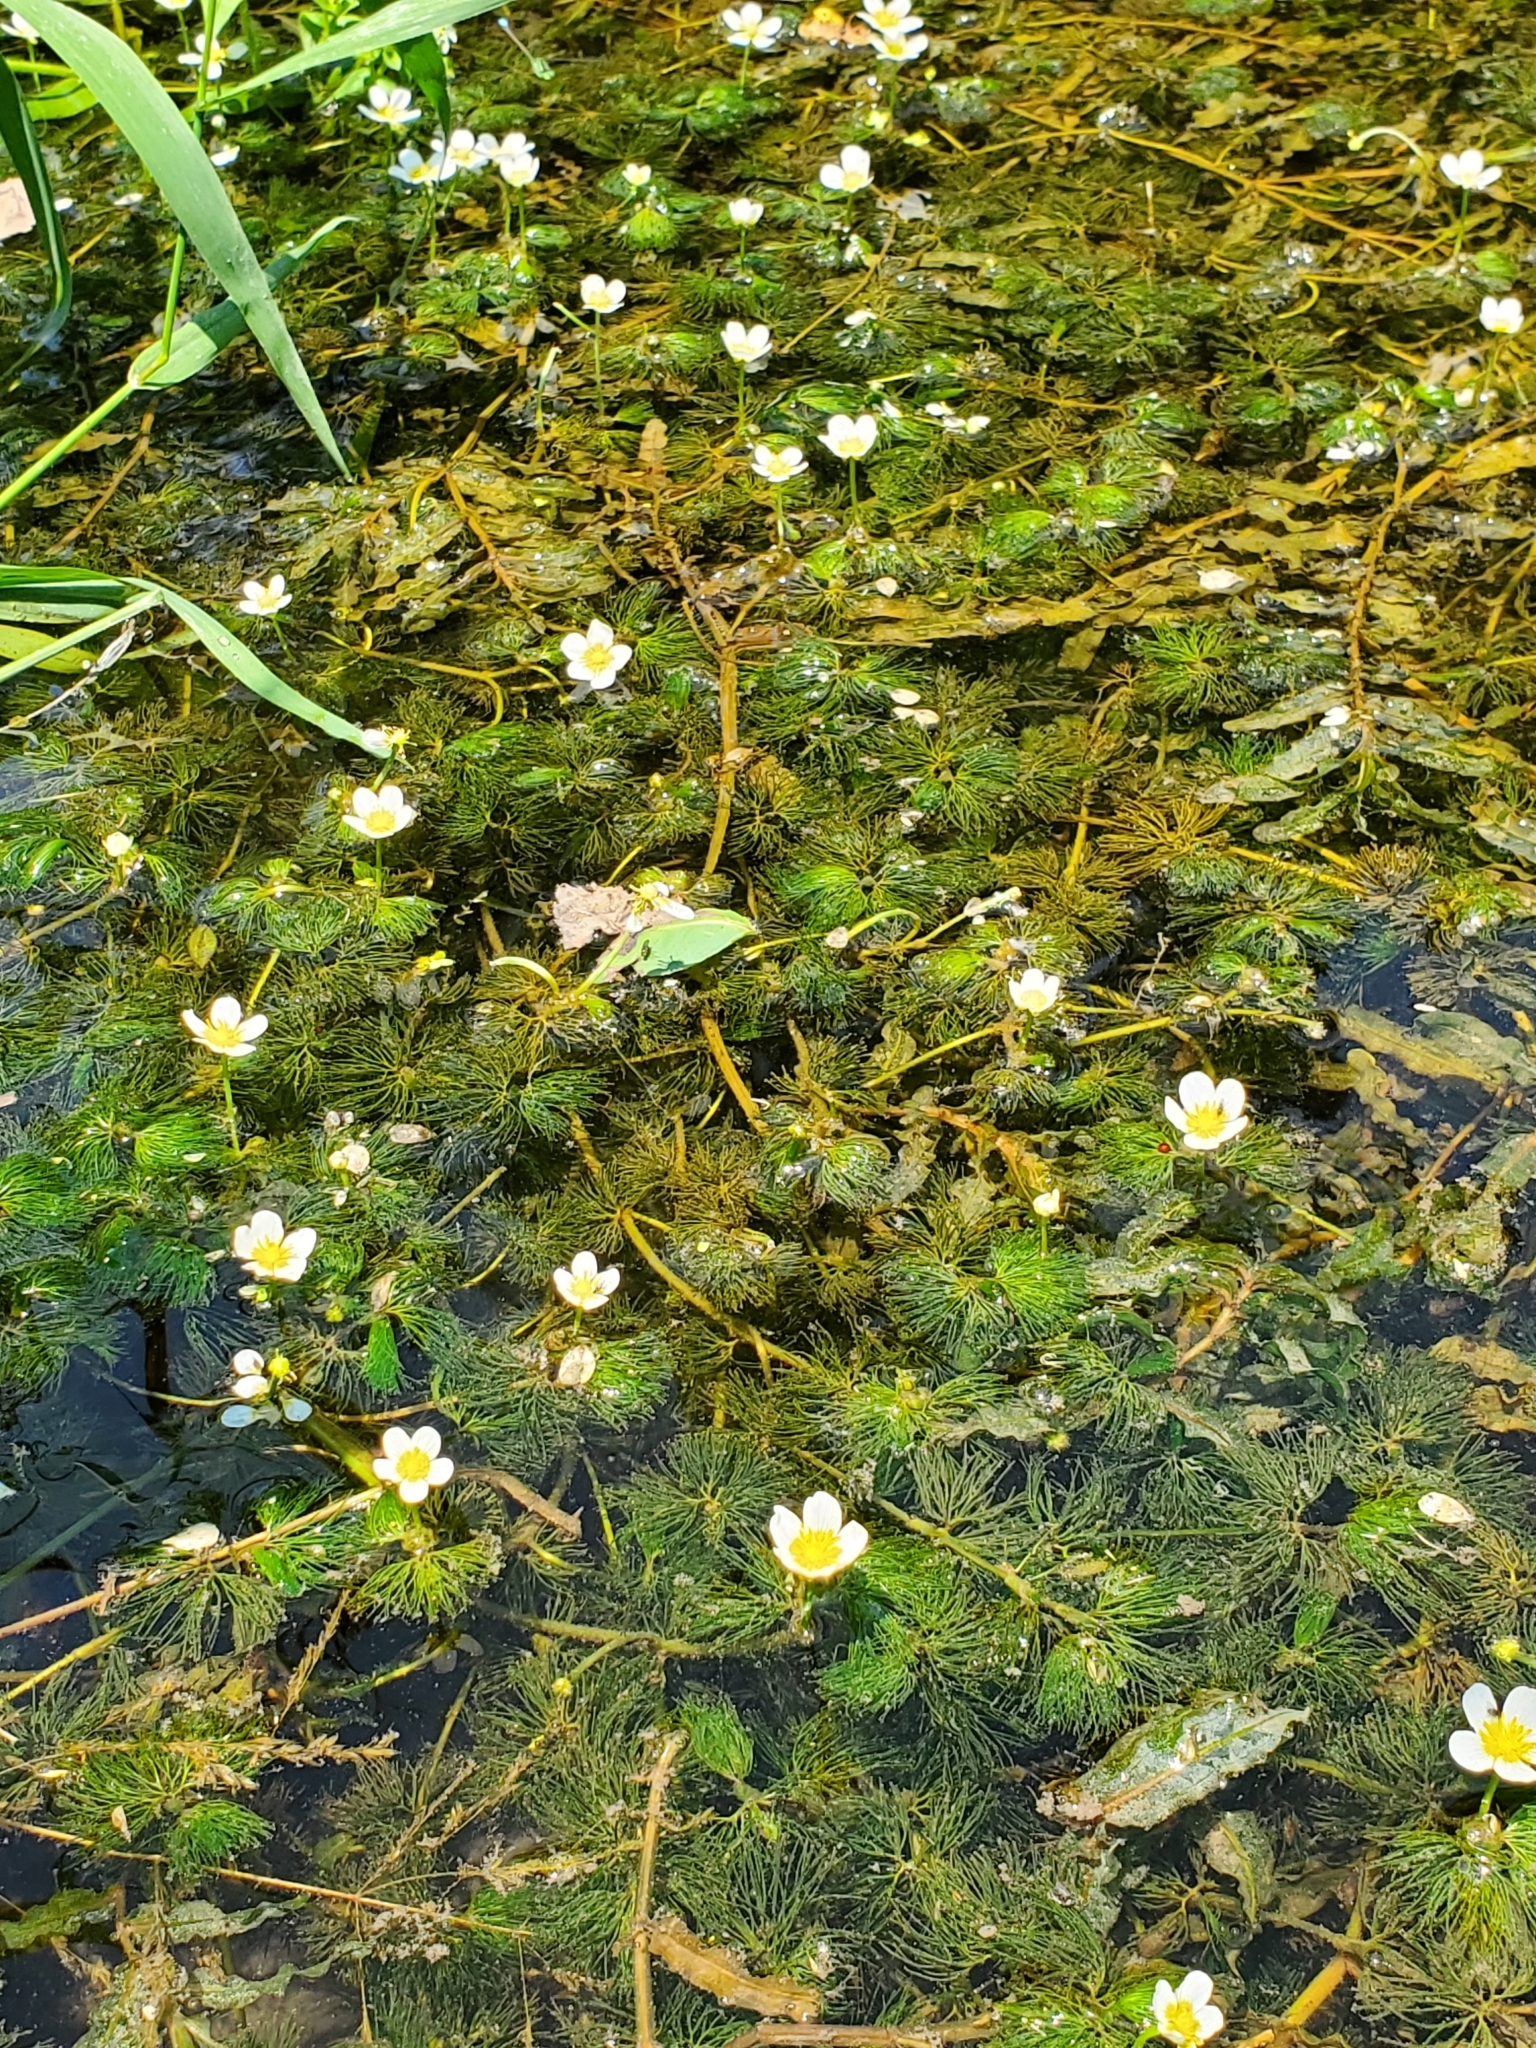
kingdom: Plantae
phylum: Tracheophyta
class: Magnoliopsida
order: Ranunculales
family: Ranunculaceae
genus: Ranunculus
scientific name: Ranunculus aquatilis
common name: Common water-crowfoot
